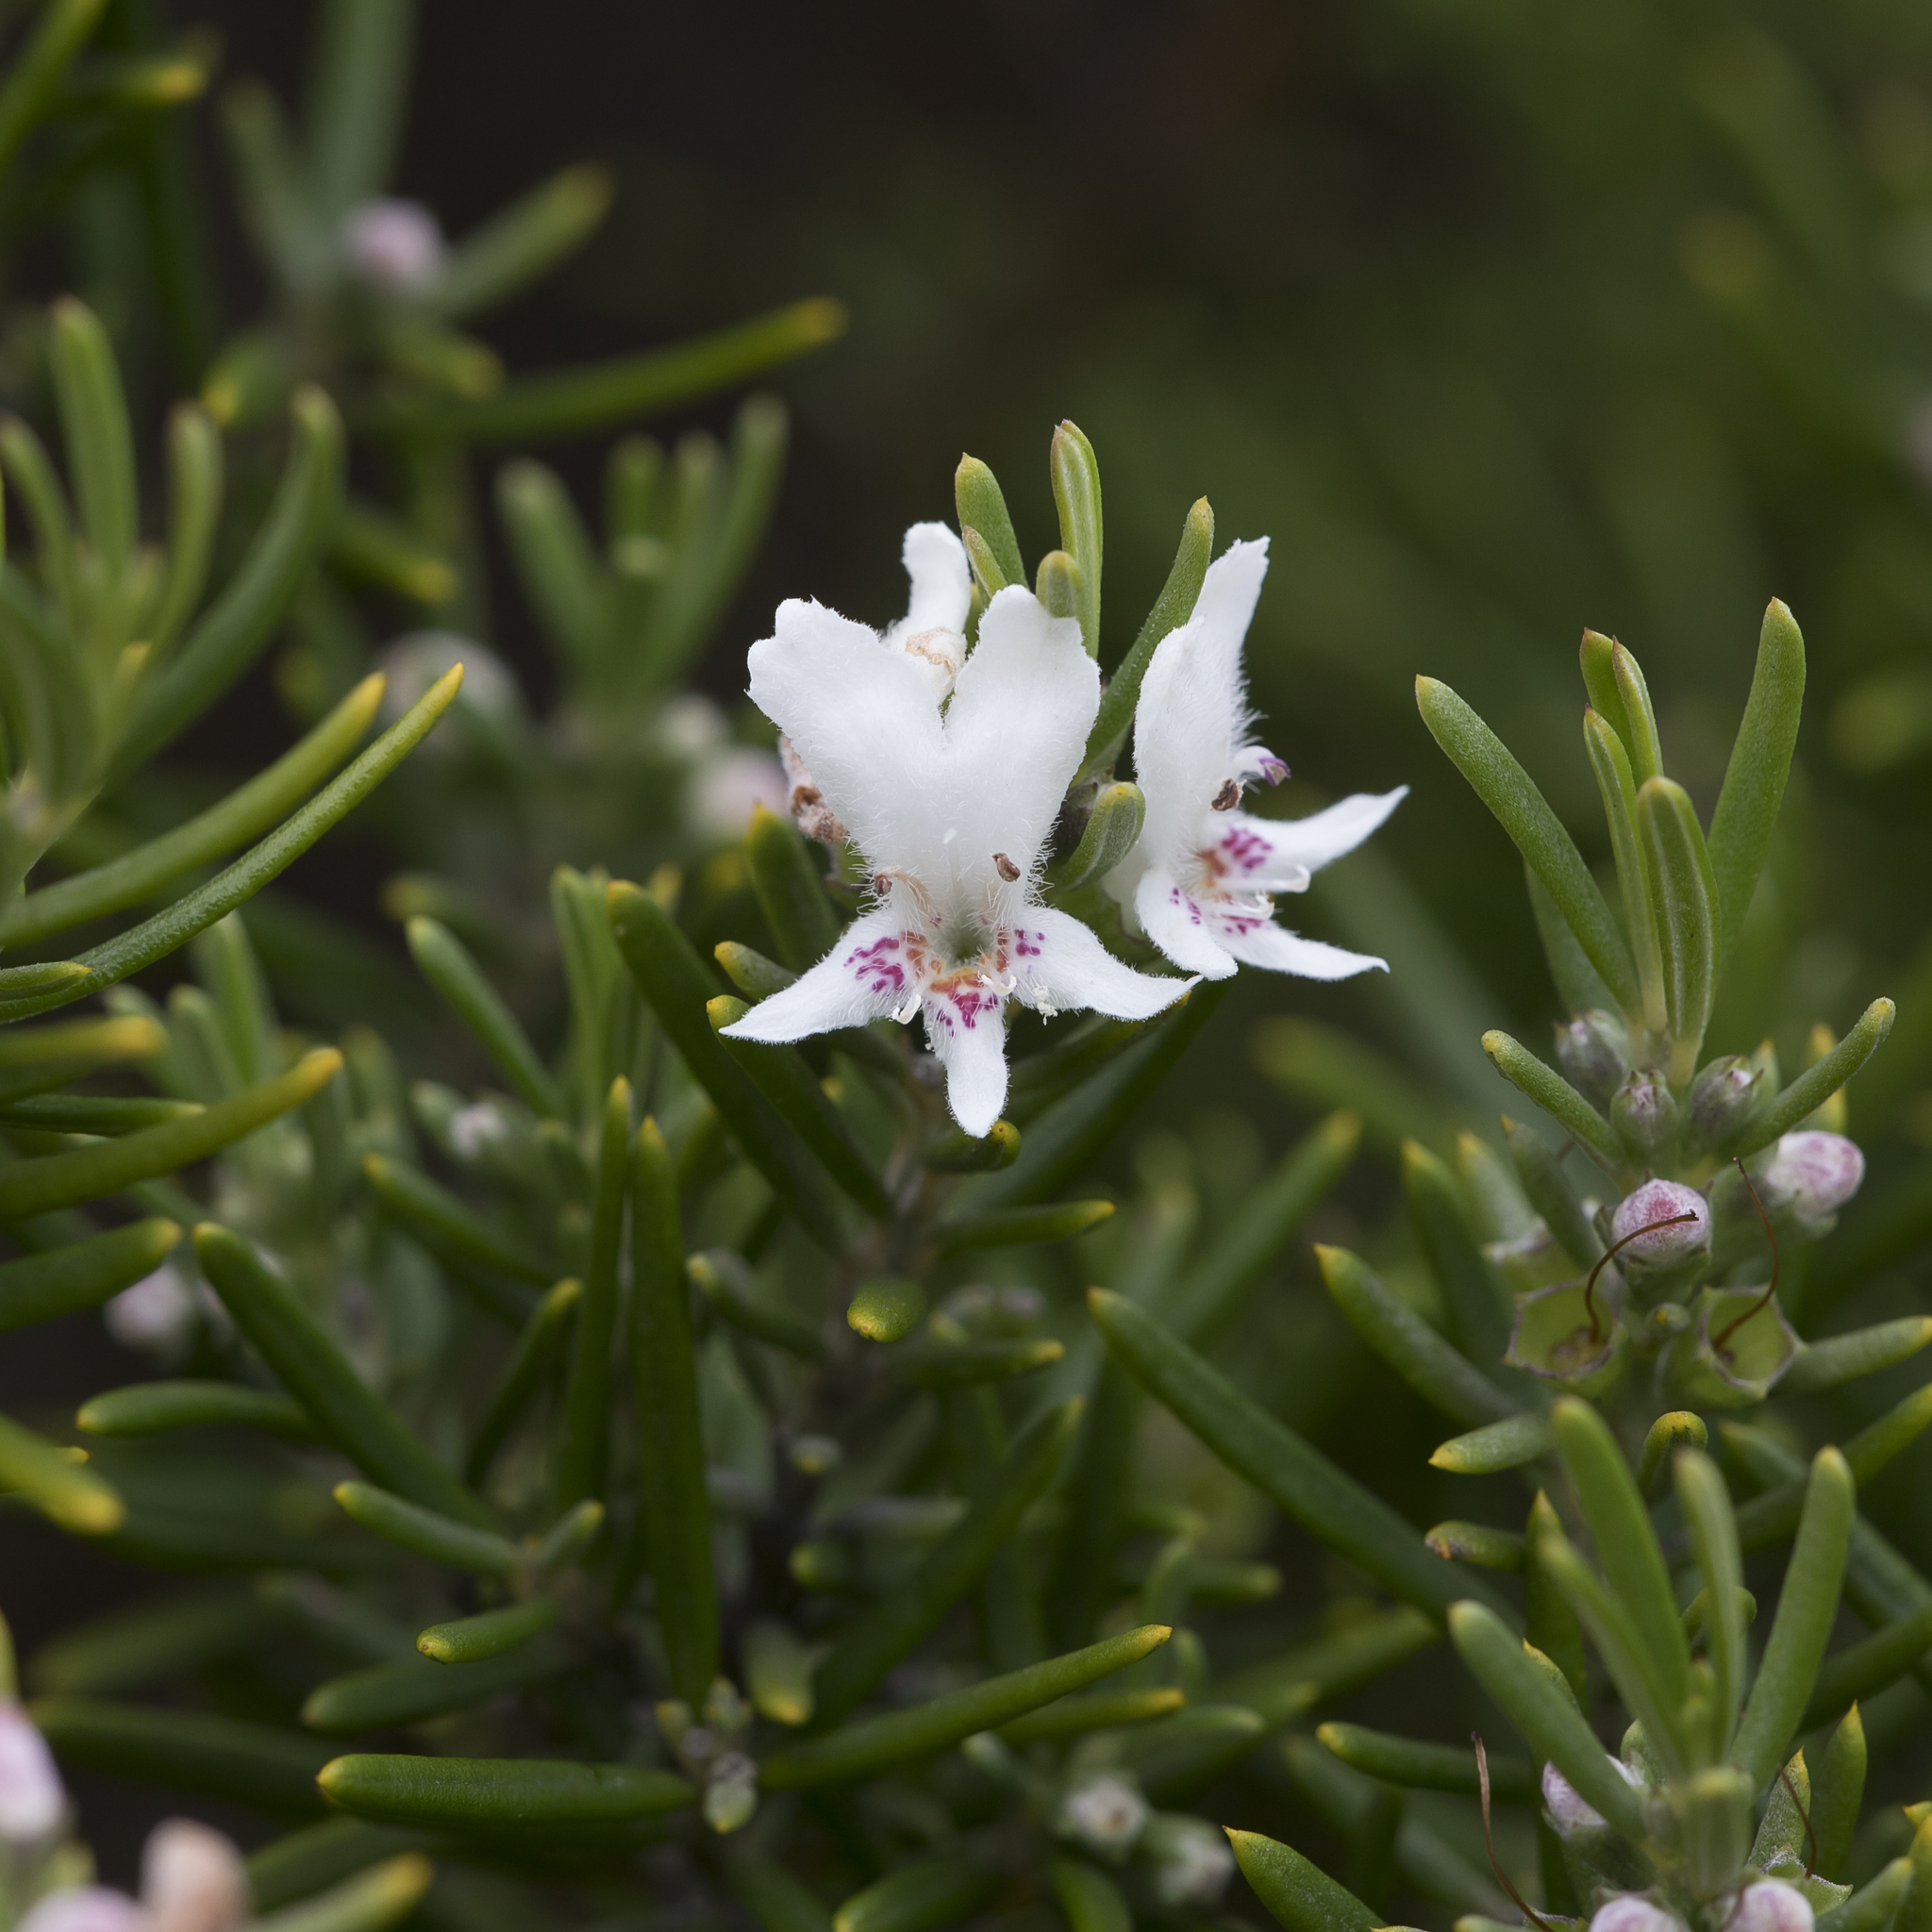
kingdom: Plantae
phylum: Tracheophyta
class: Magnoliopsida
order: Lamiales
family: Lamiaceae
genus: Westringia
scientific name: Westringia dampieri
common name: Shore westringia
